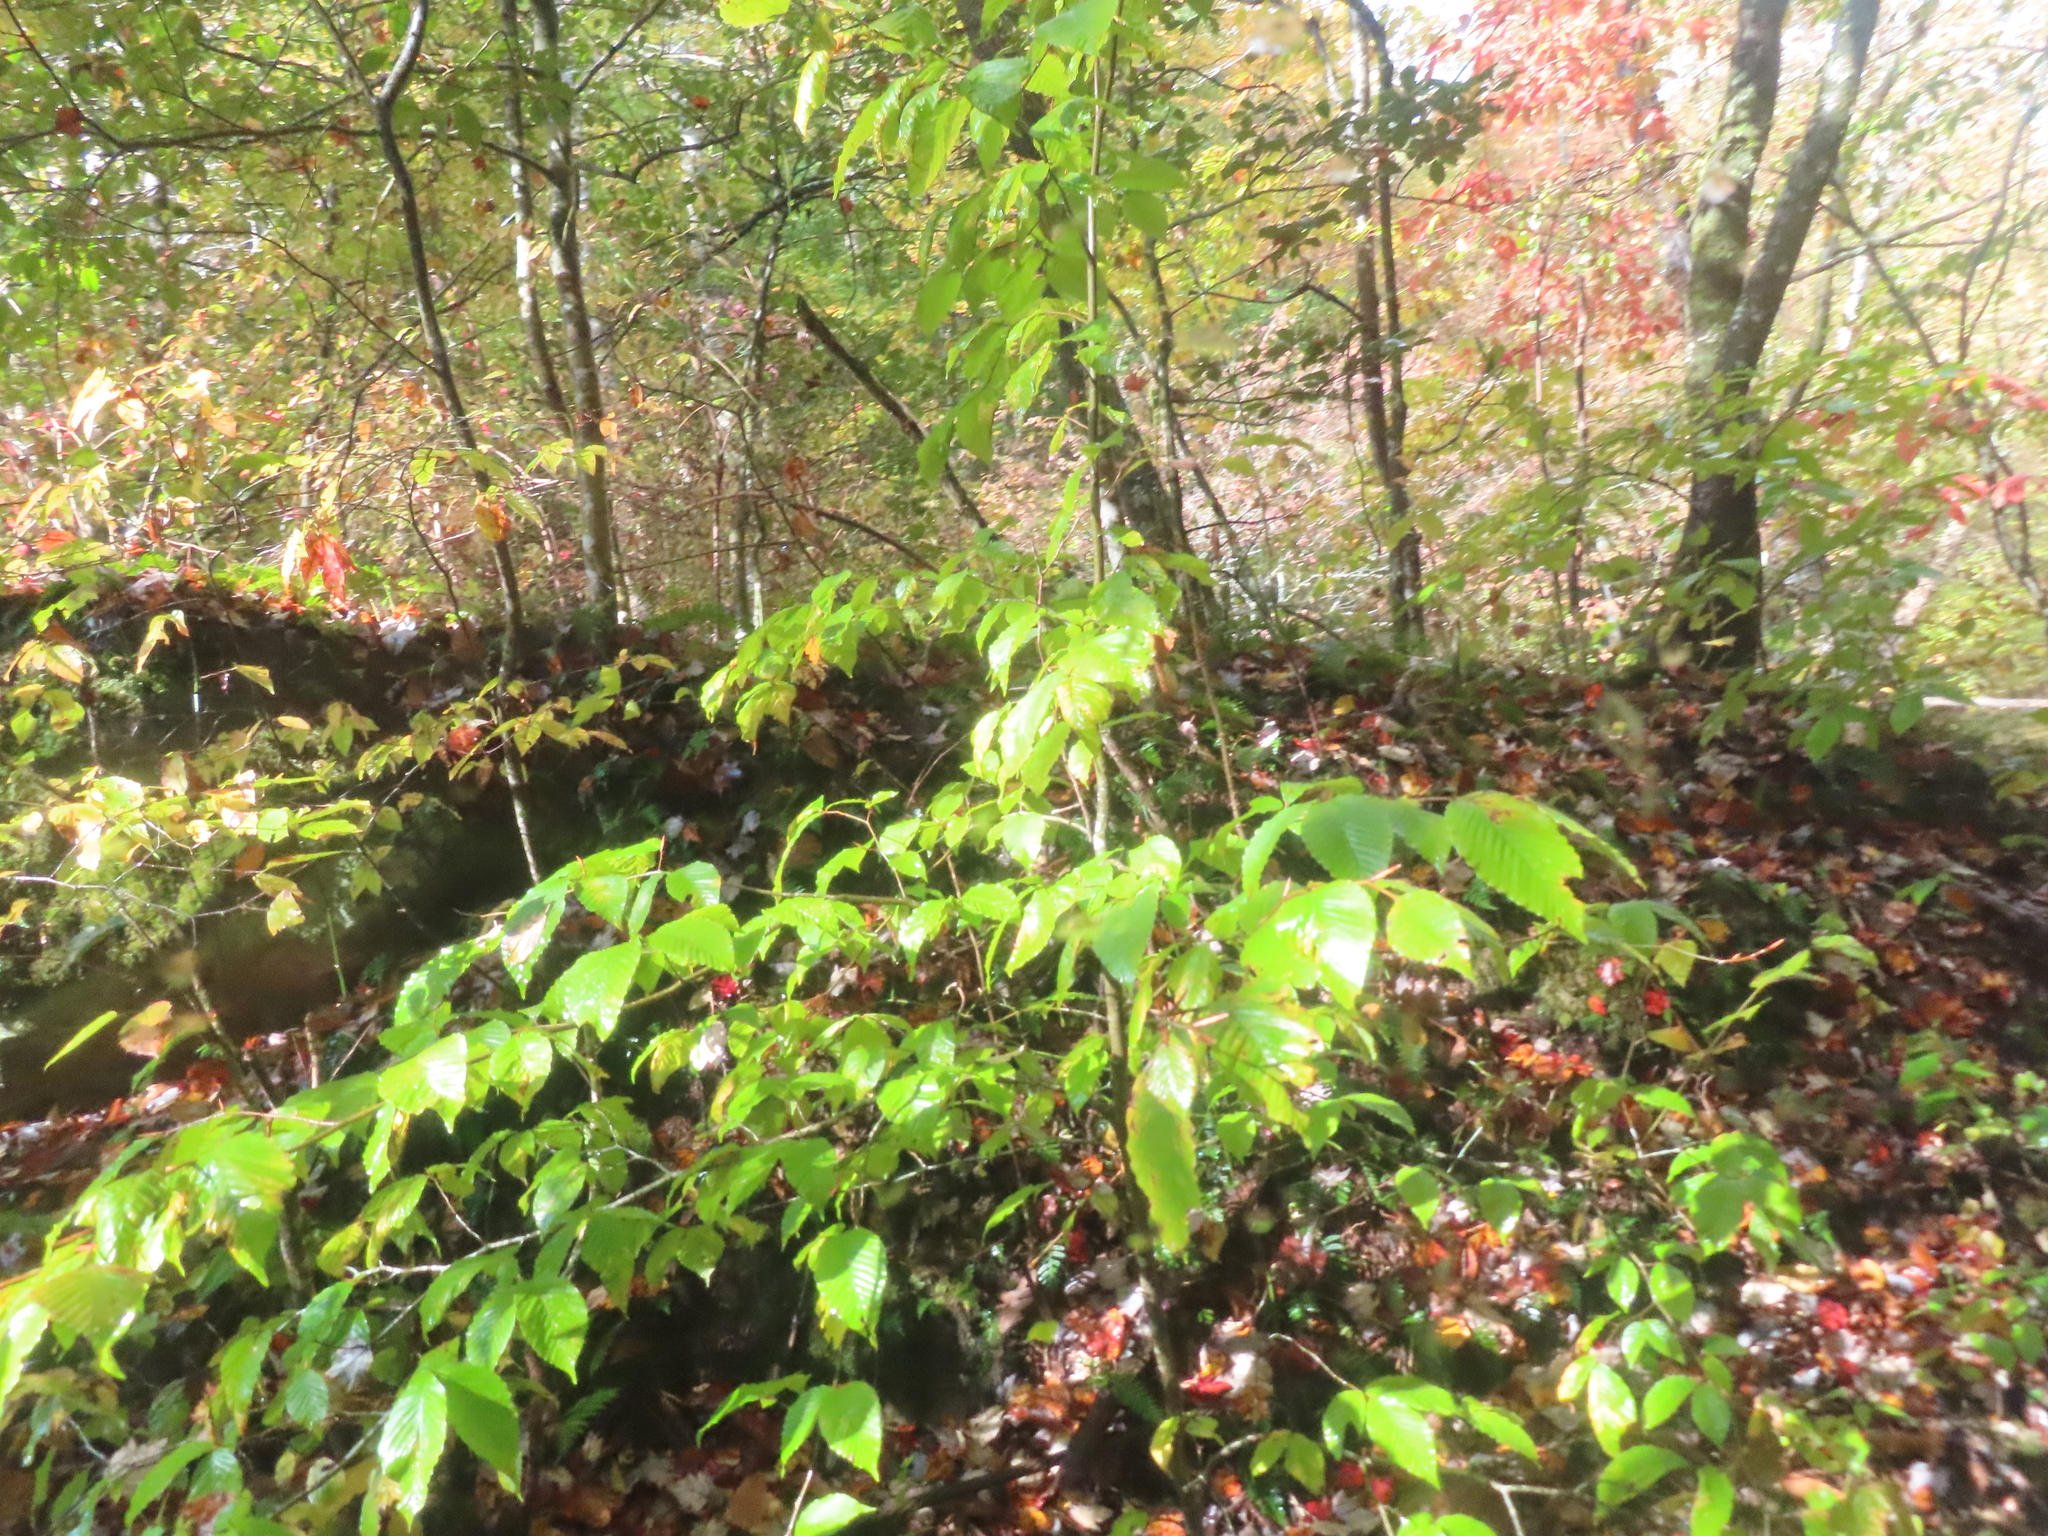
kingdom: Plantae
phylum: Tracheophyta
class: Magnoliopsida
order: Fagales
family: Fagaceae
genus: Fagus
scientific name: Fagus grandifolia
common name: American beech
